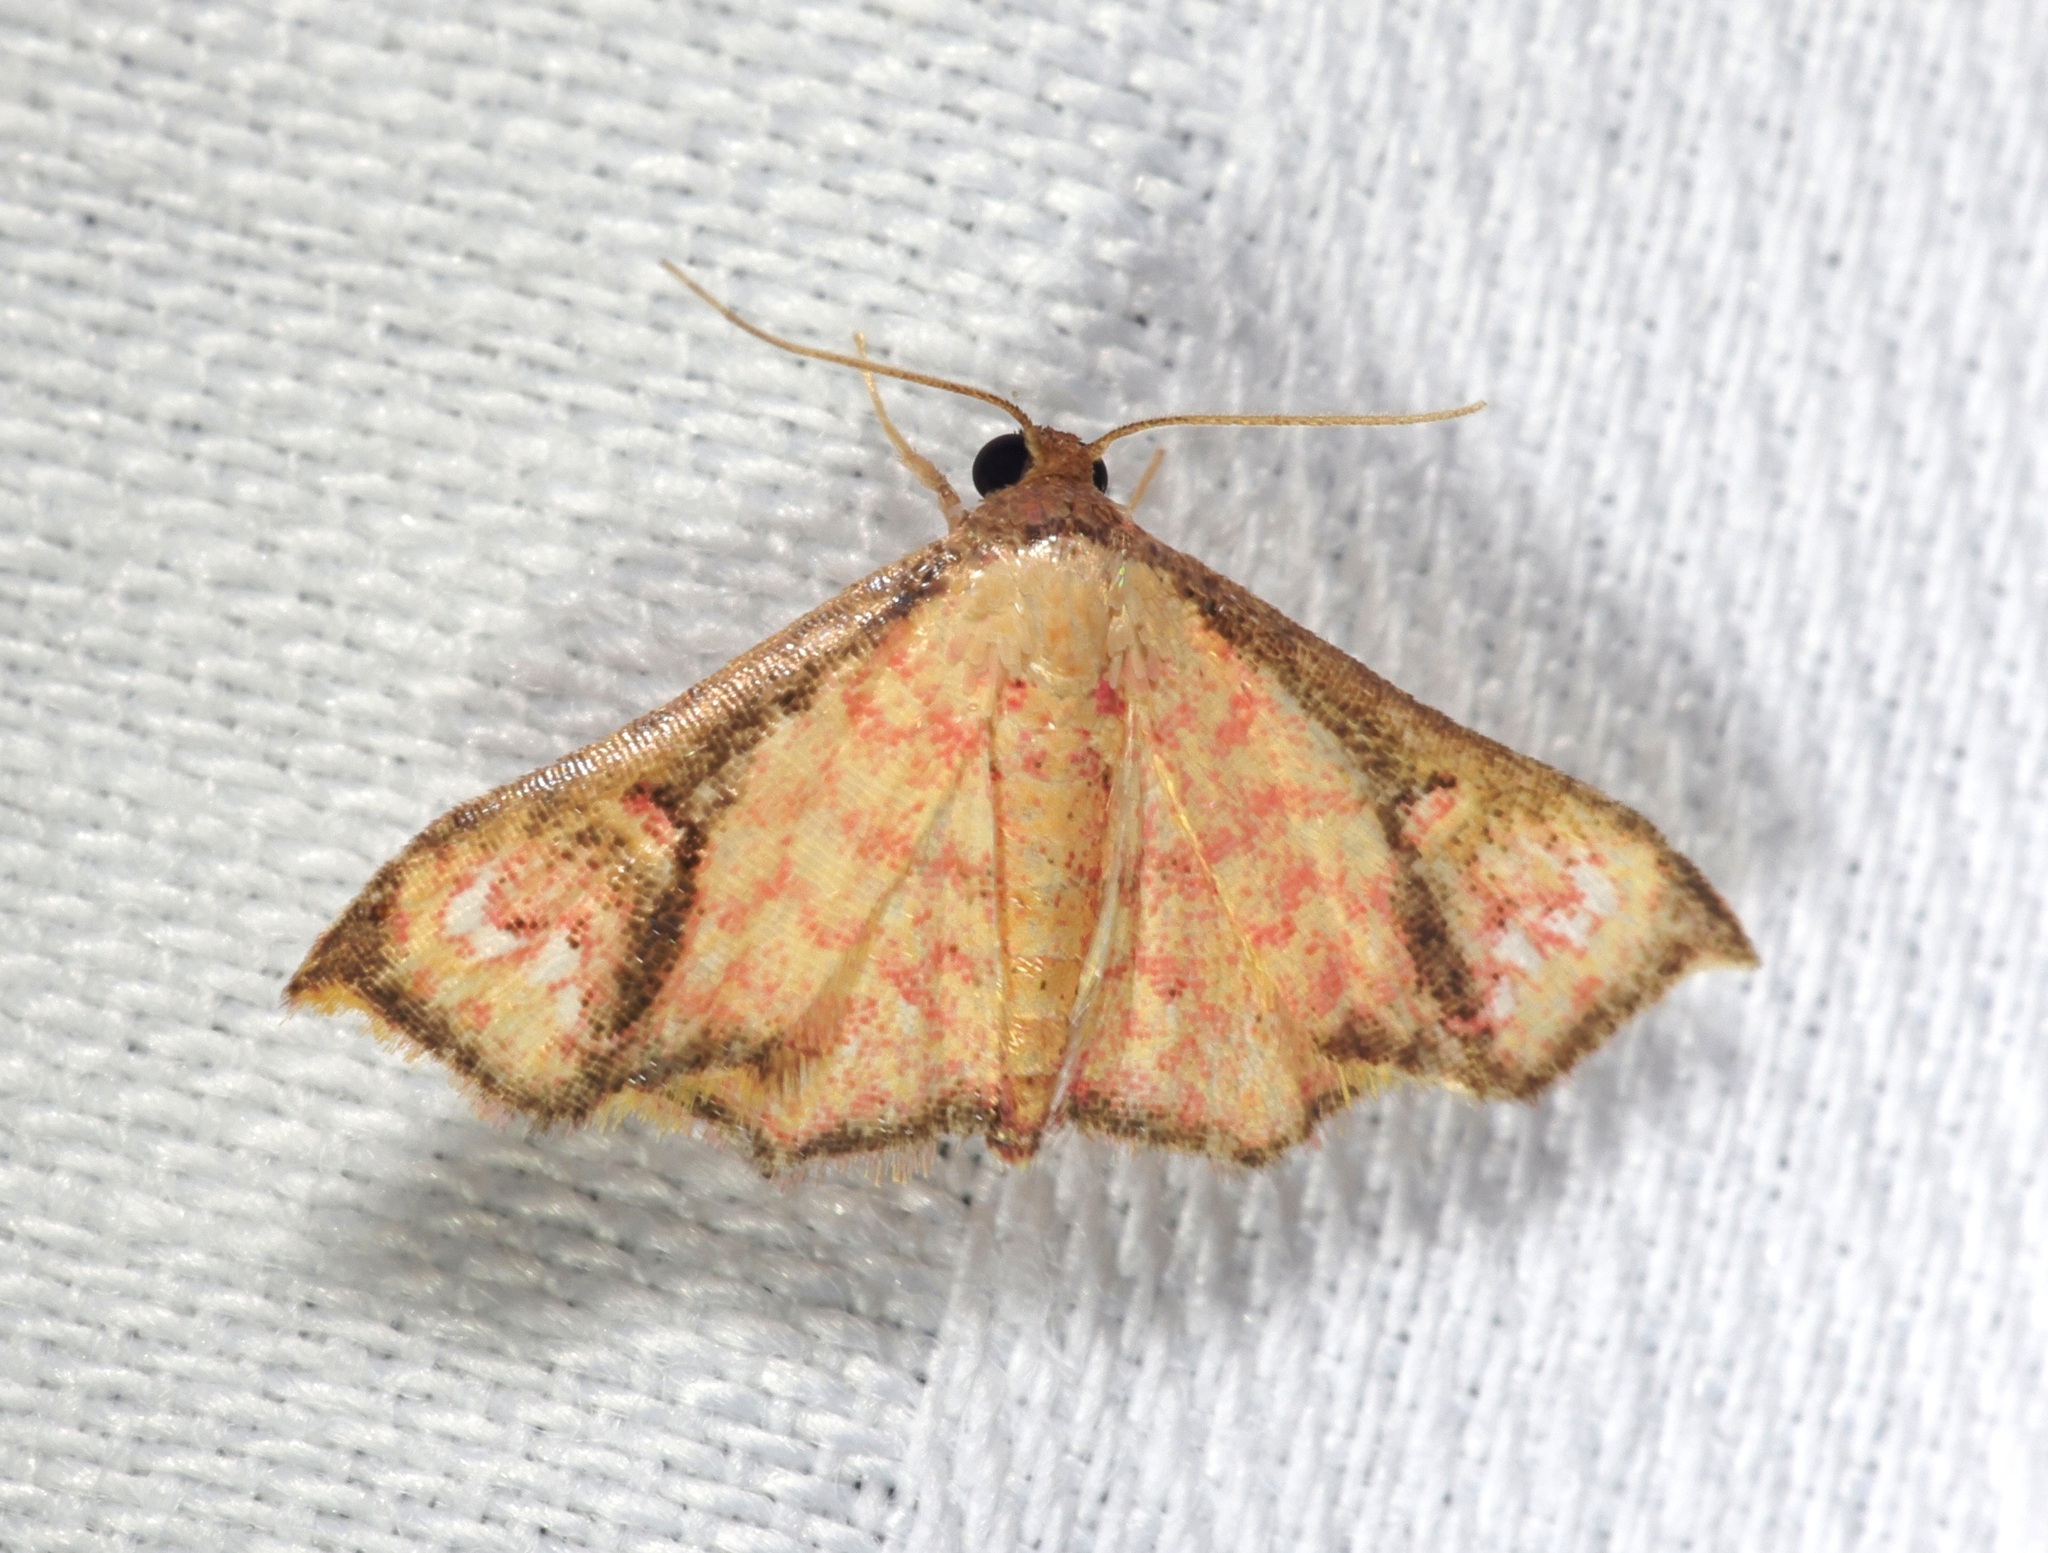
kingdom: Animalia
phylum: Arthropoda
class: Insecta
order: Lepidoptera
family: Noctuidae
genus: Enispa
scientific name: Enispa elataria
